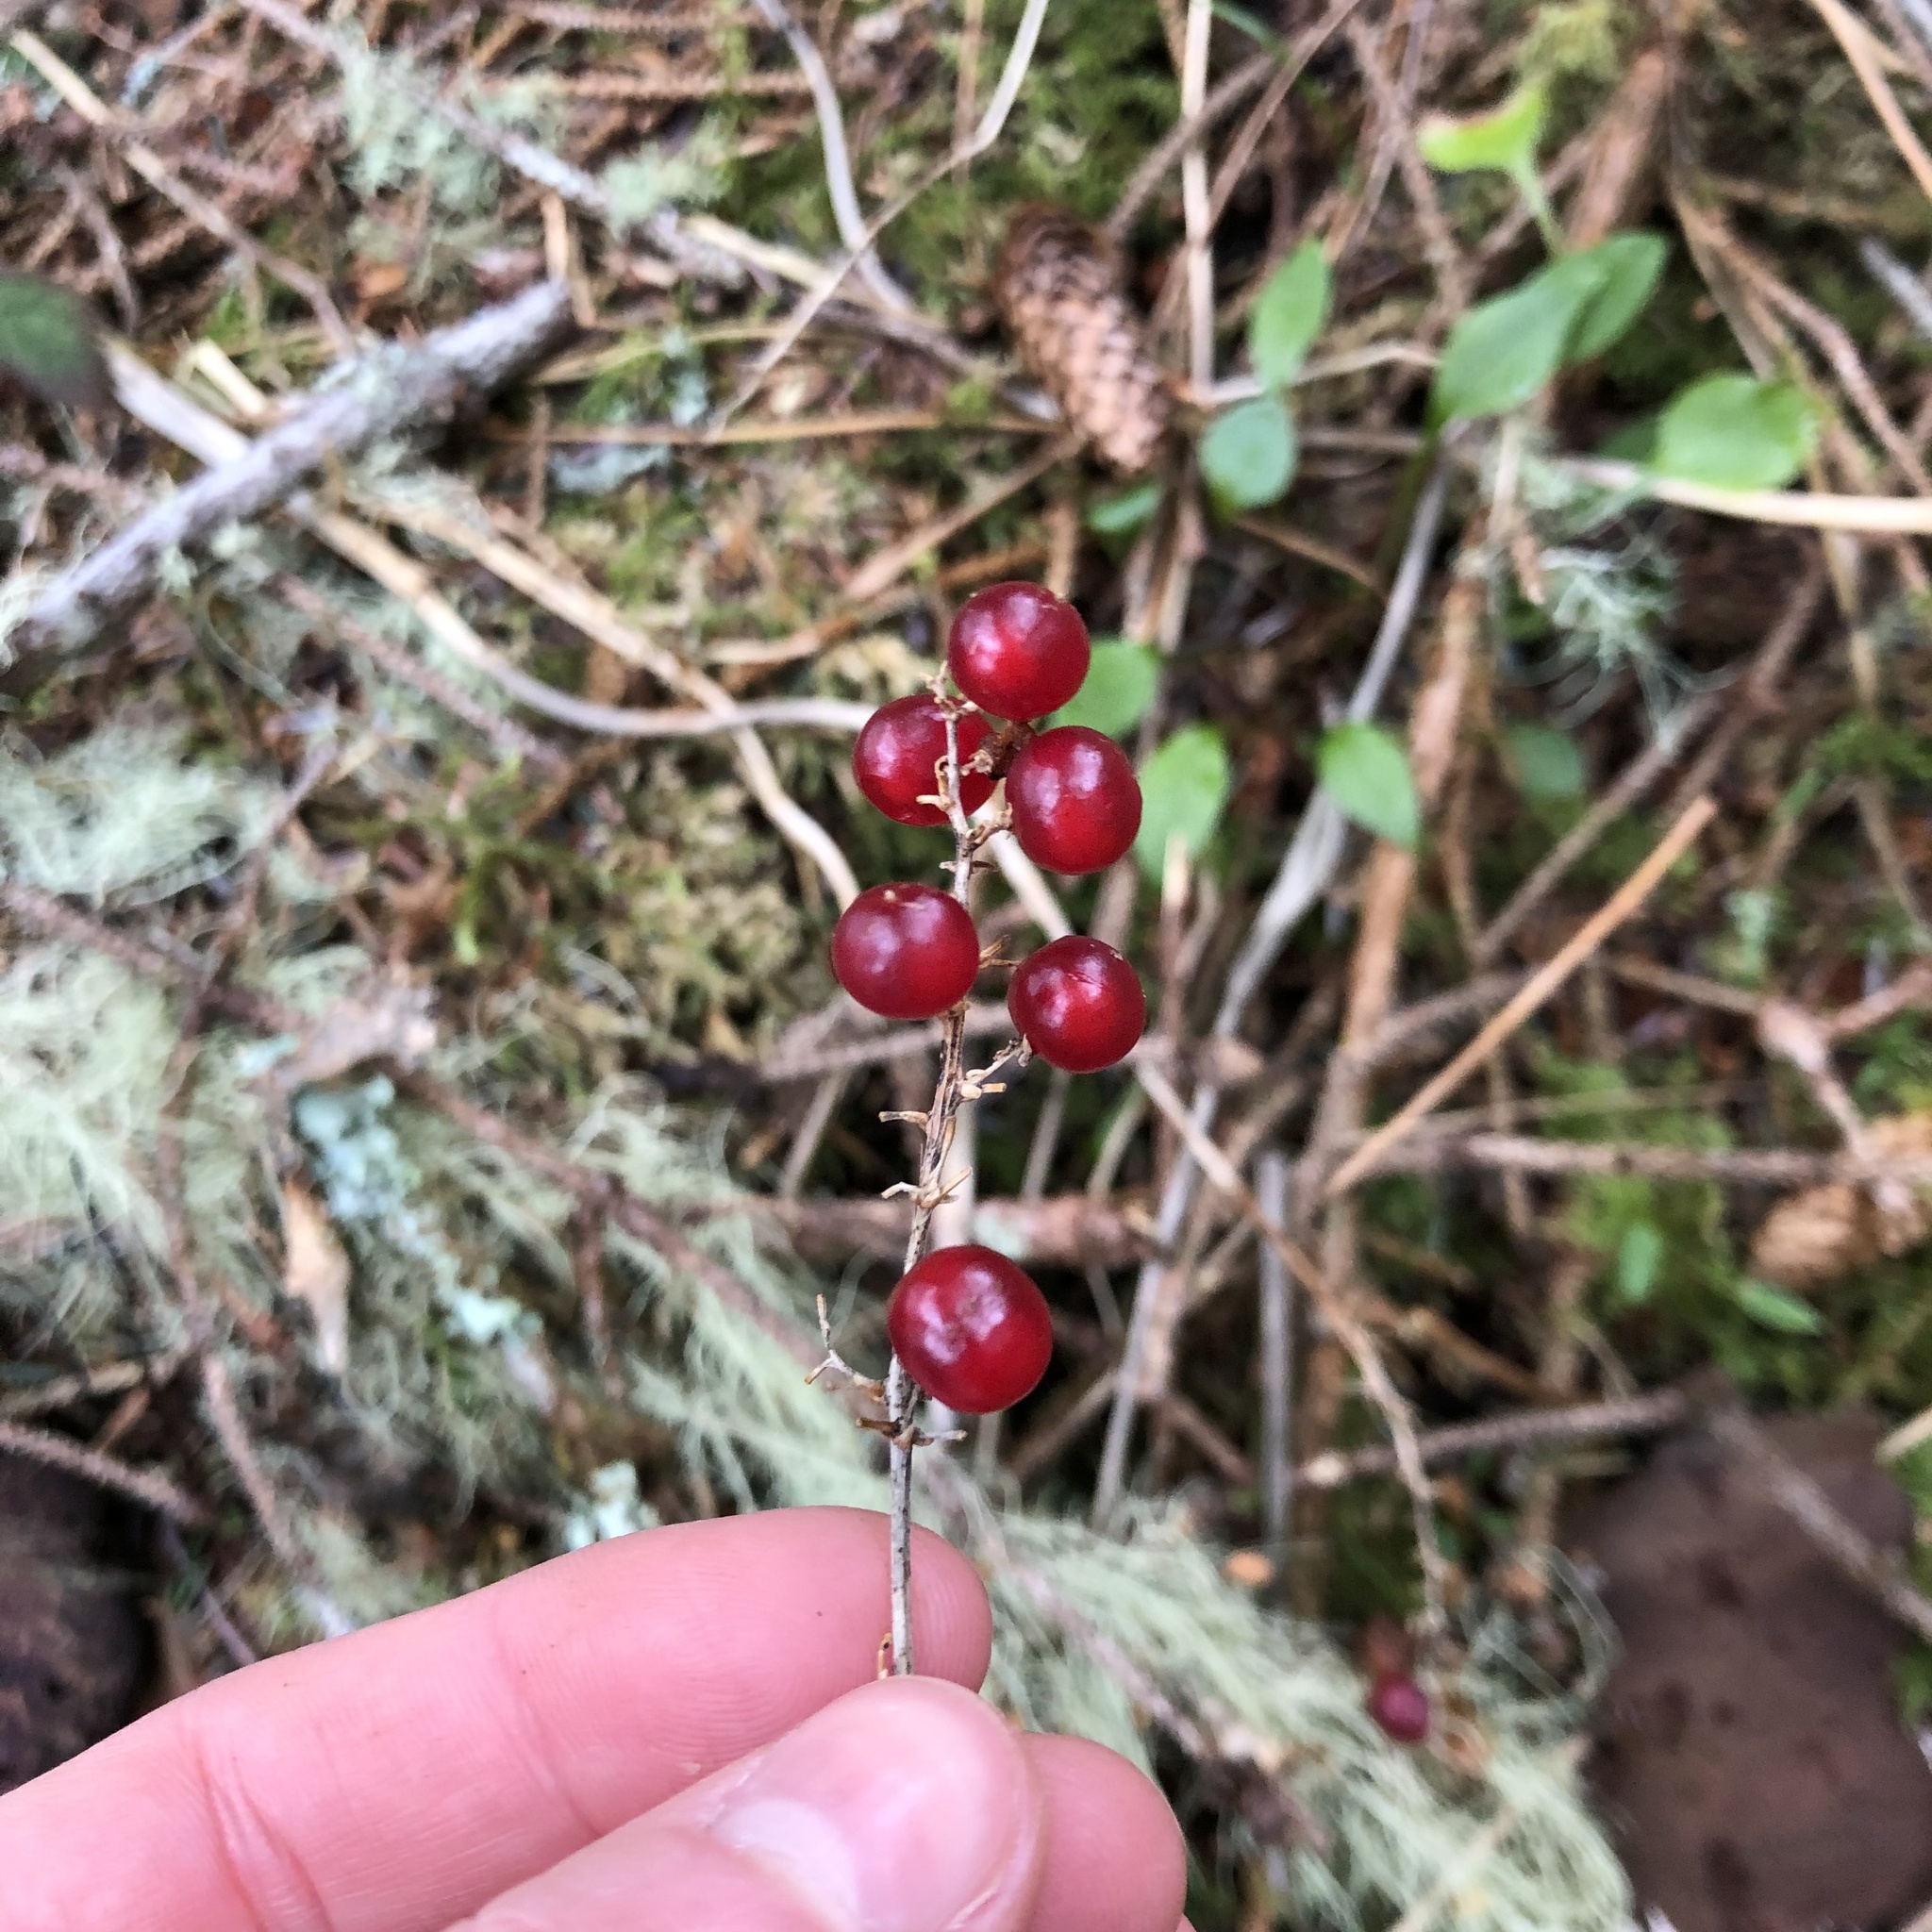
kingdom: Plantae
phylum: Tracheophyta
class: Liliopsida
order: Asparagales
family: Asparagaceae
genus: Maianthemum
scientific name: Maianthemum dilatatum
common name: False lily-of-the-valley
